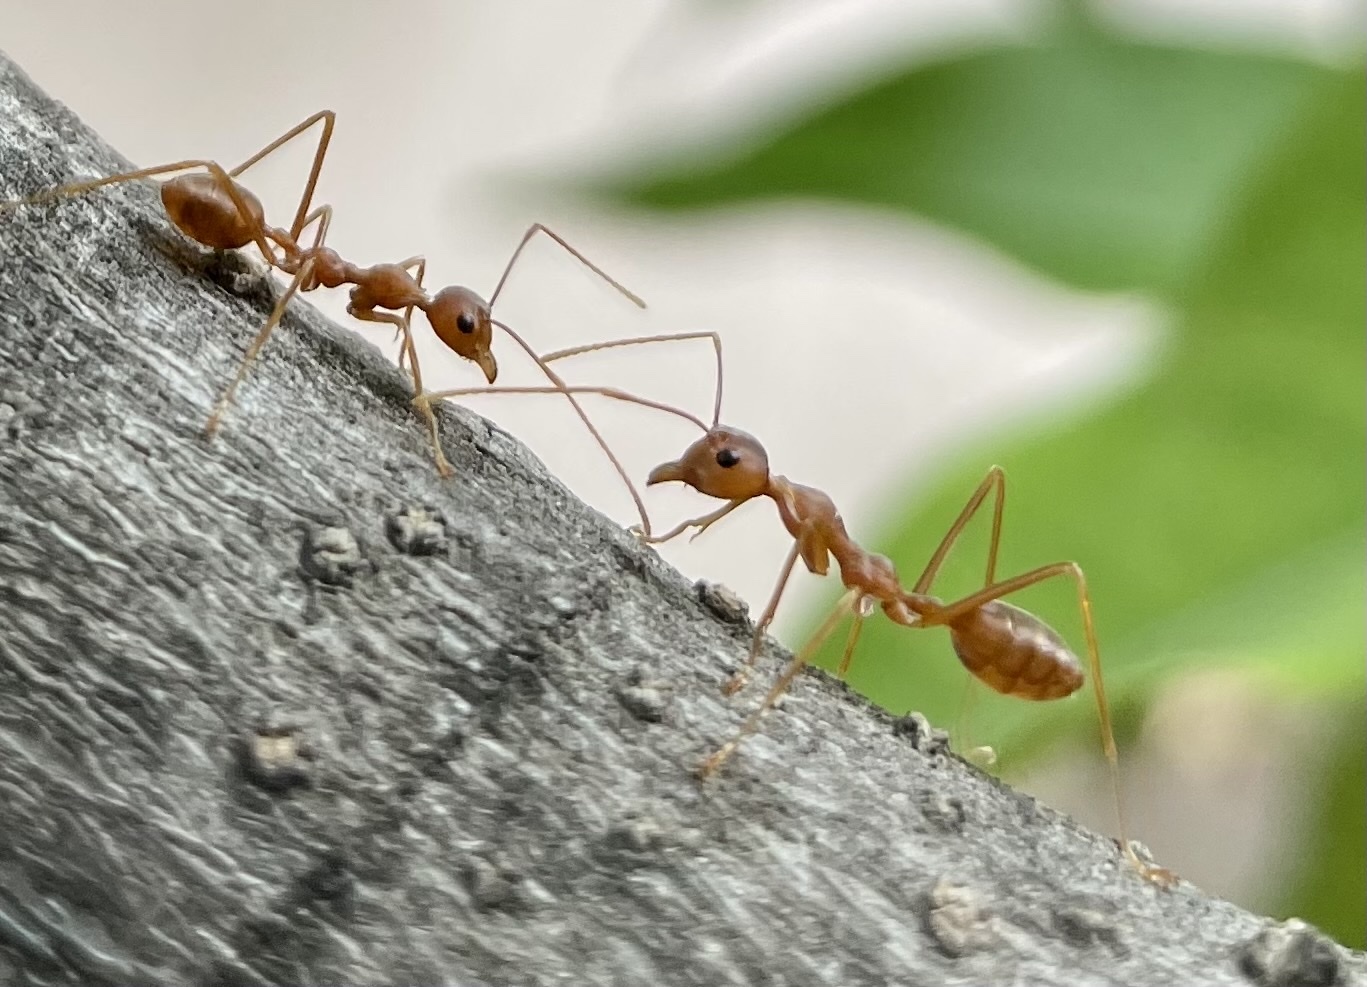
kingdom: Animalia
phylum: Arthropoda
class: Insecta
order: Hymenoptera
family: Formicidae
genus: Oecophylla
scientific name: Oecophylla smaragdina
